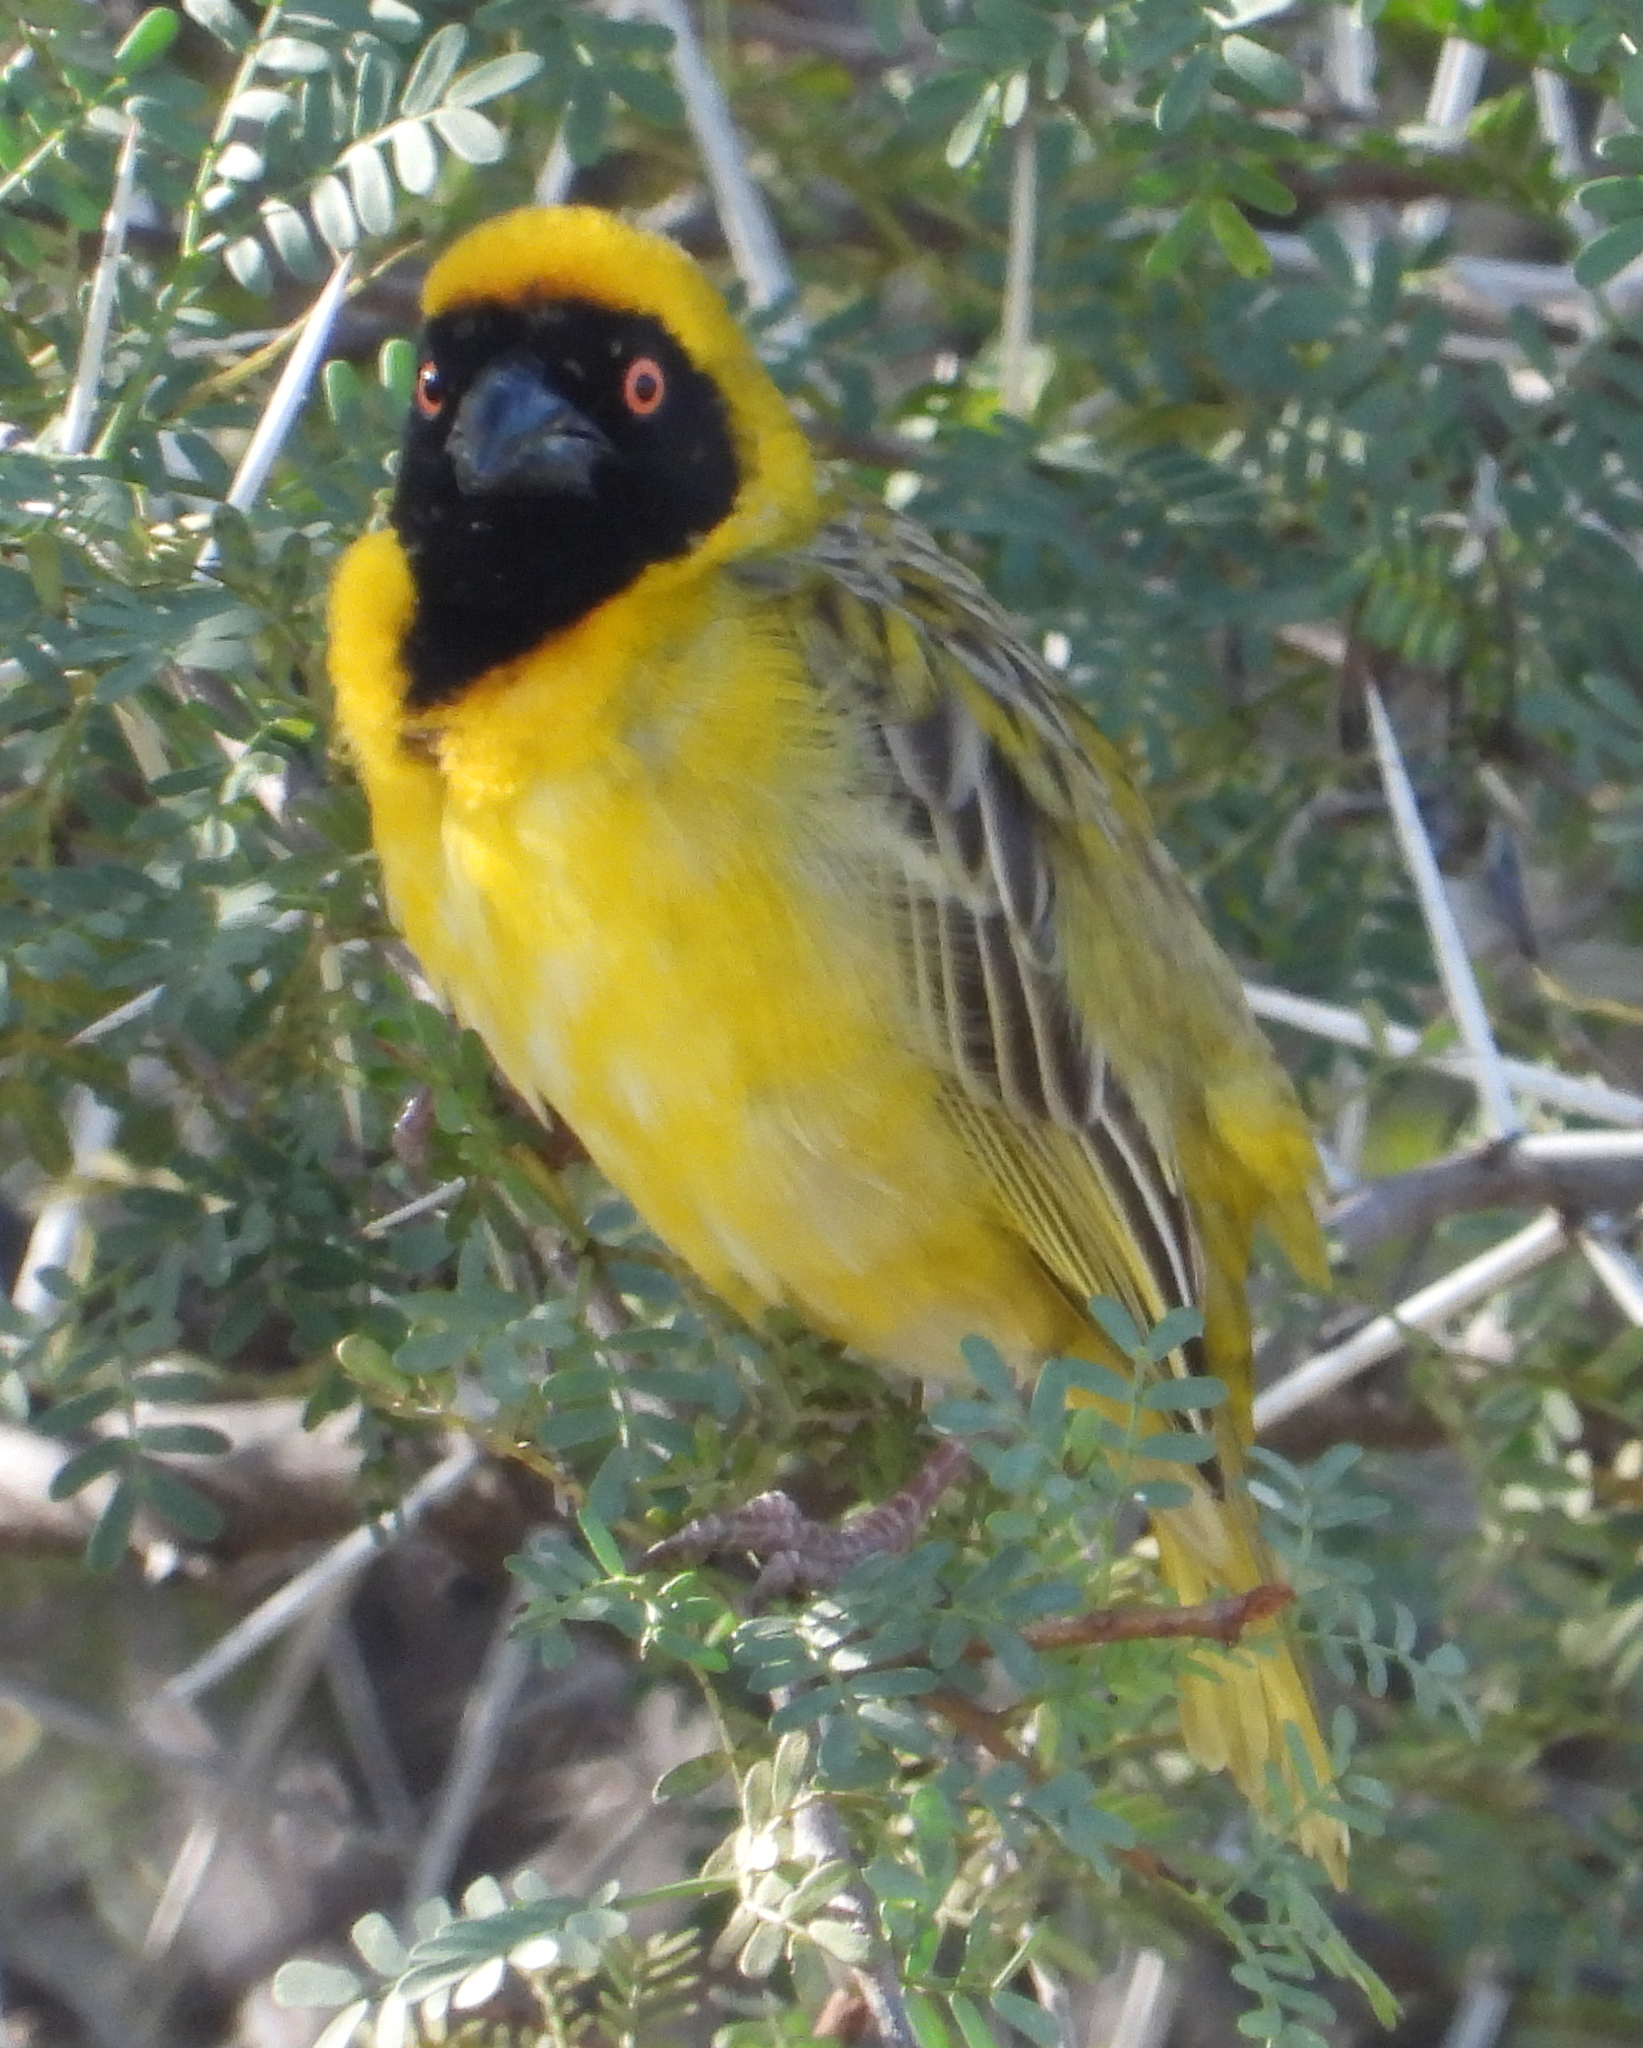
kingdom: Animalia
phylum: Chordata
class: Aves
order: Passeriformes
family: Ploceidae
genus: Ploceus
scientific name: Ploceus velatus
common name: Southern masked weaver
